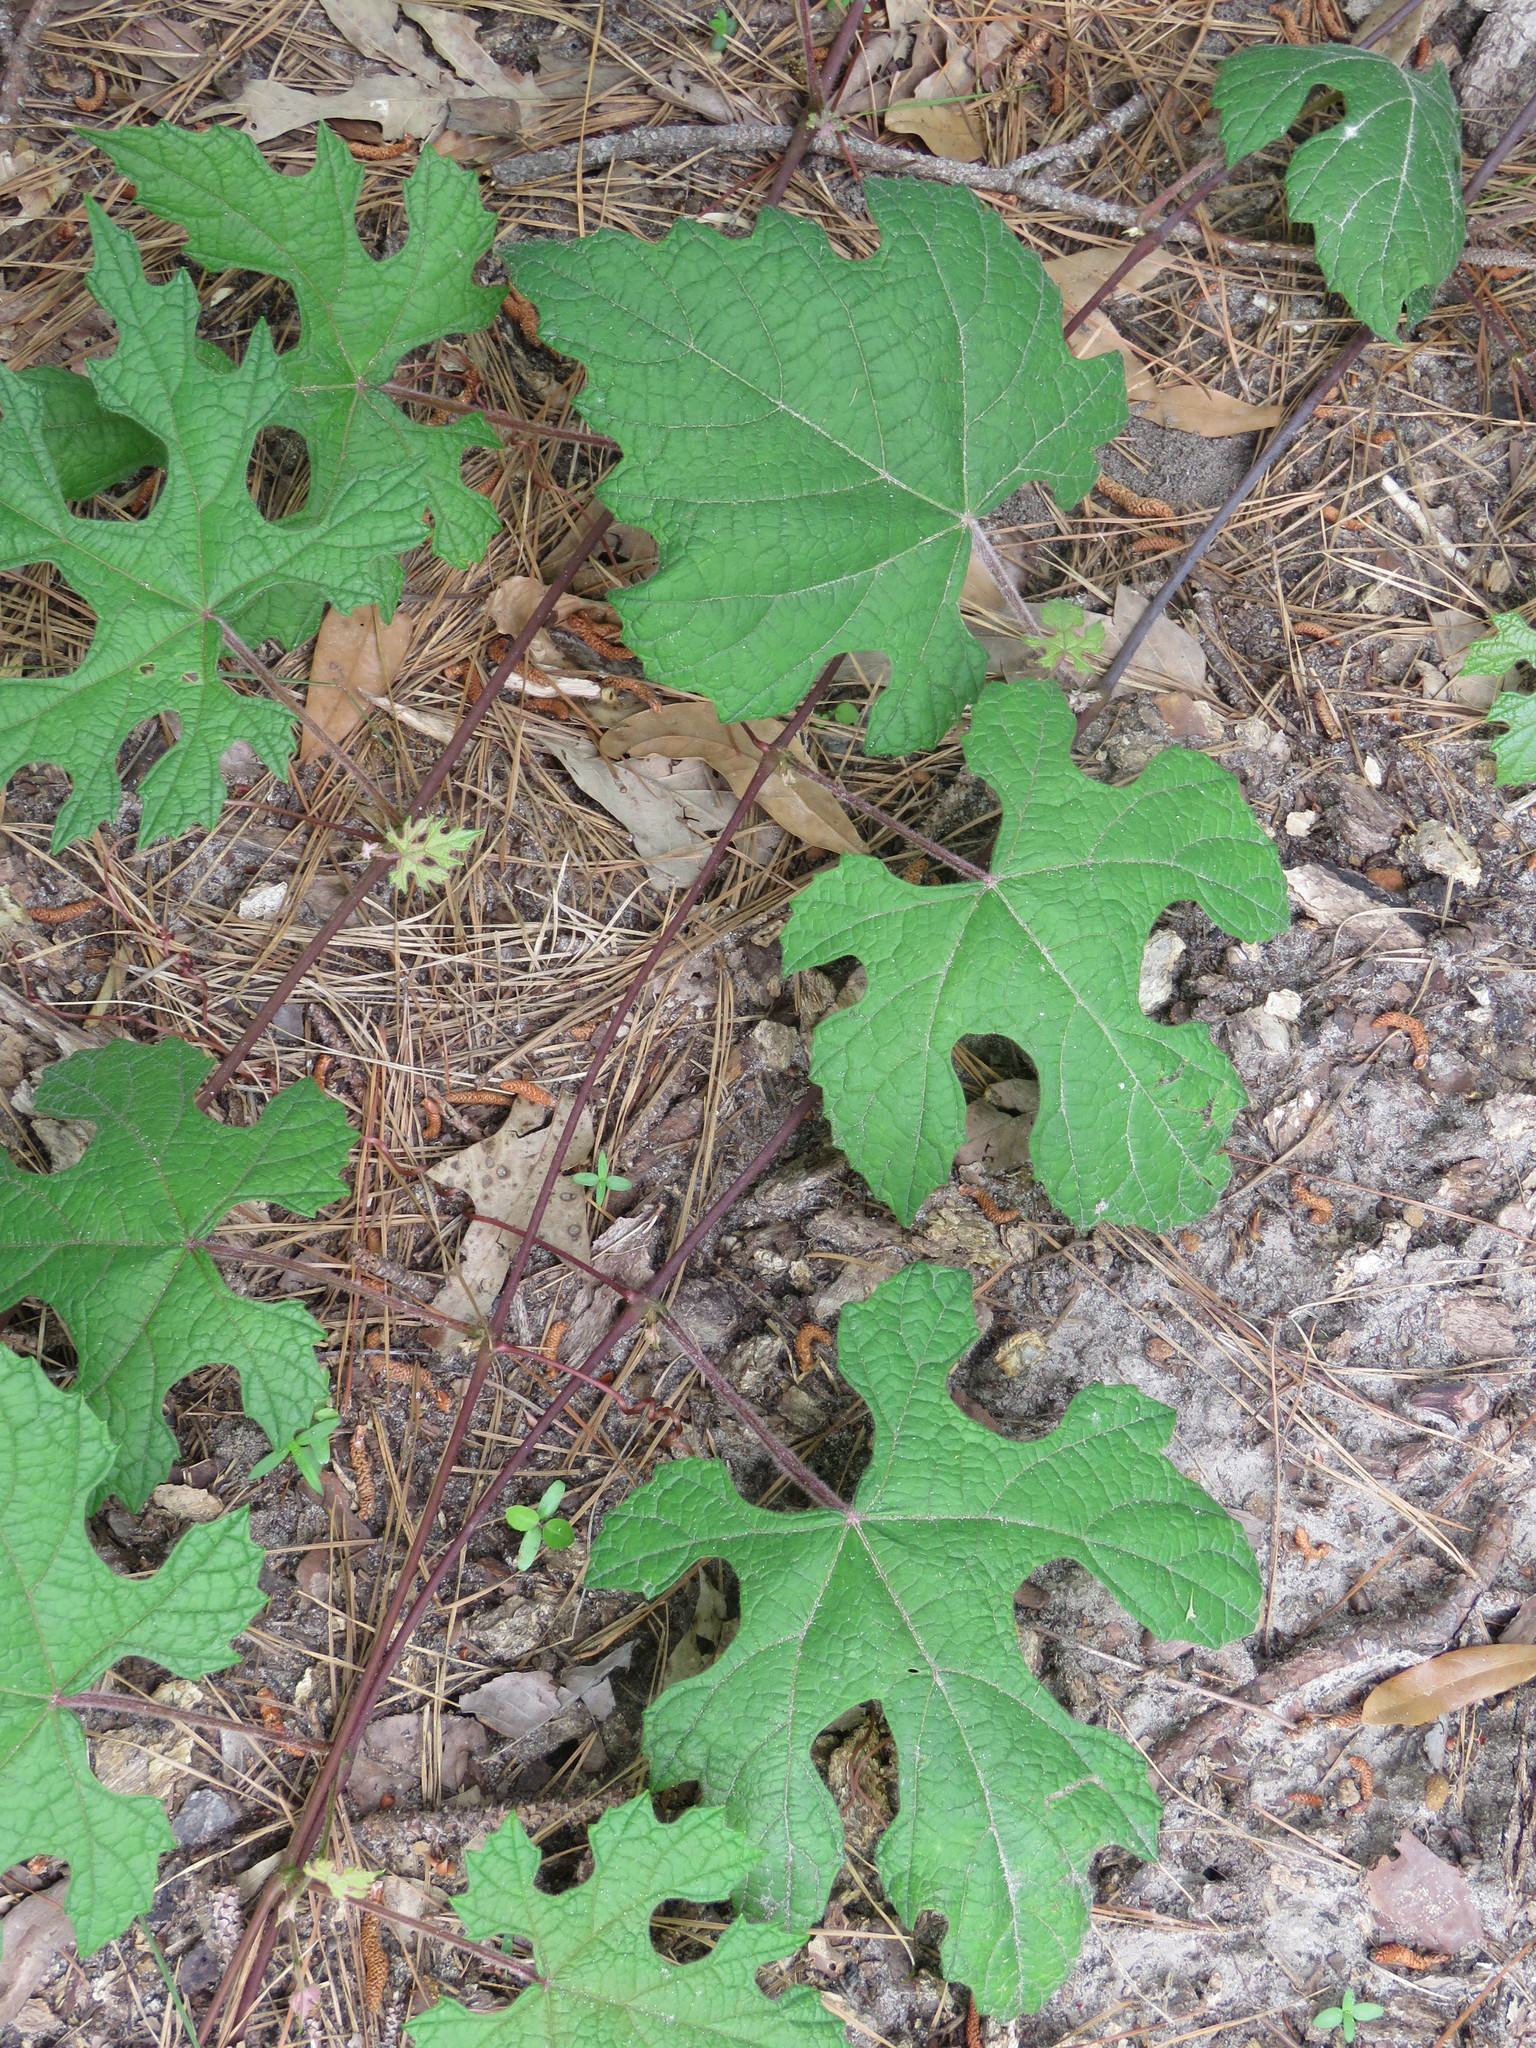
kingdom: Plantae
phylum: Tracheophyta
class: Magnoliopsida
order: Vitales
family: Vitaceae
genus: Vitis
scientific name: Vitis mustangensis
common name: Mustang grape
